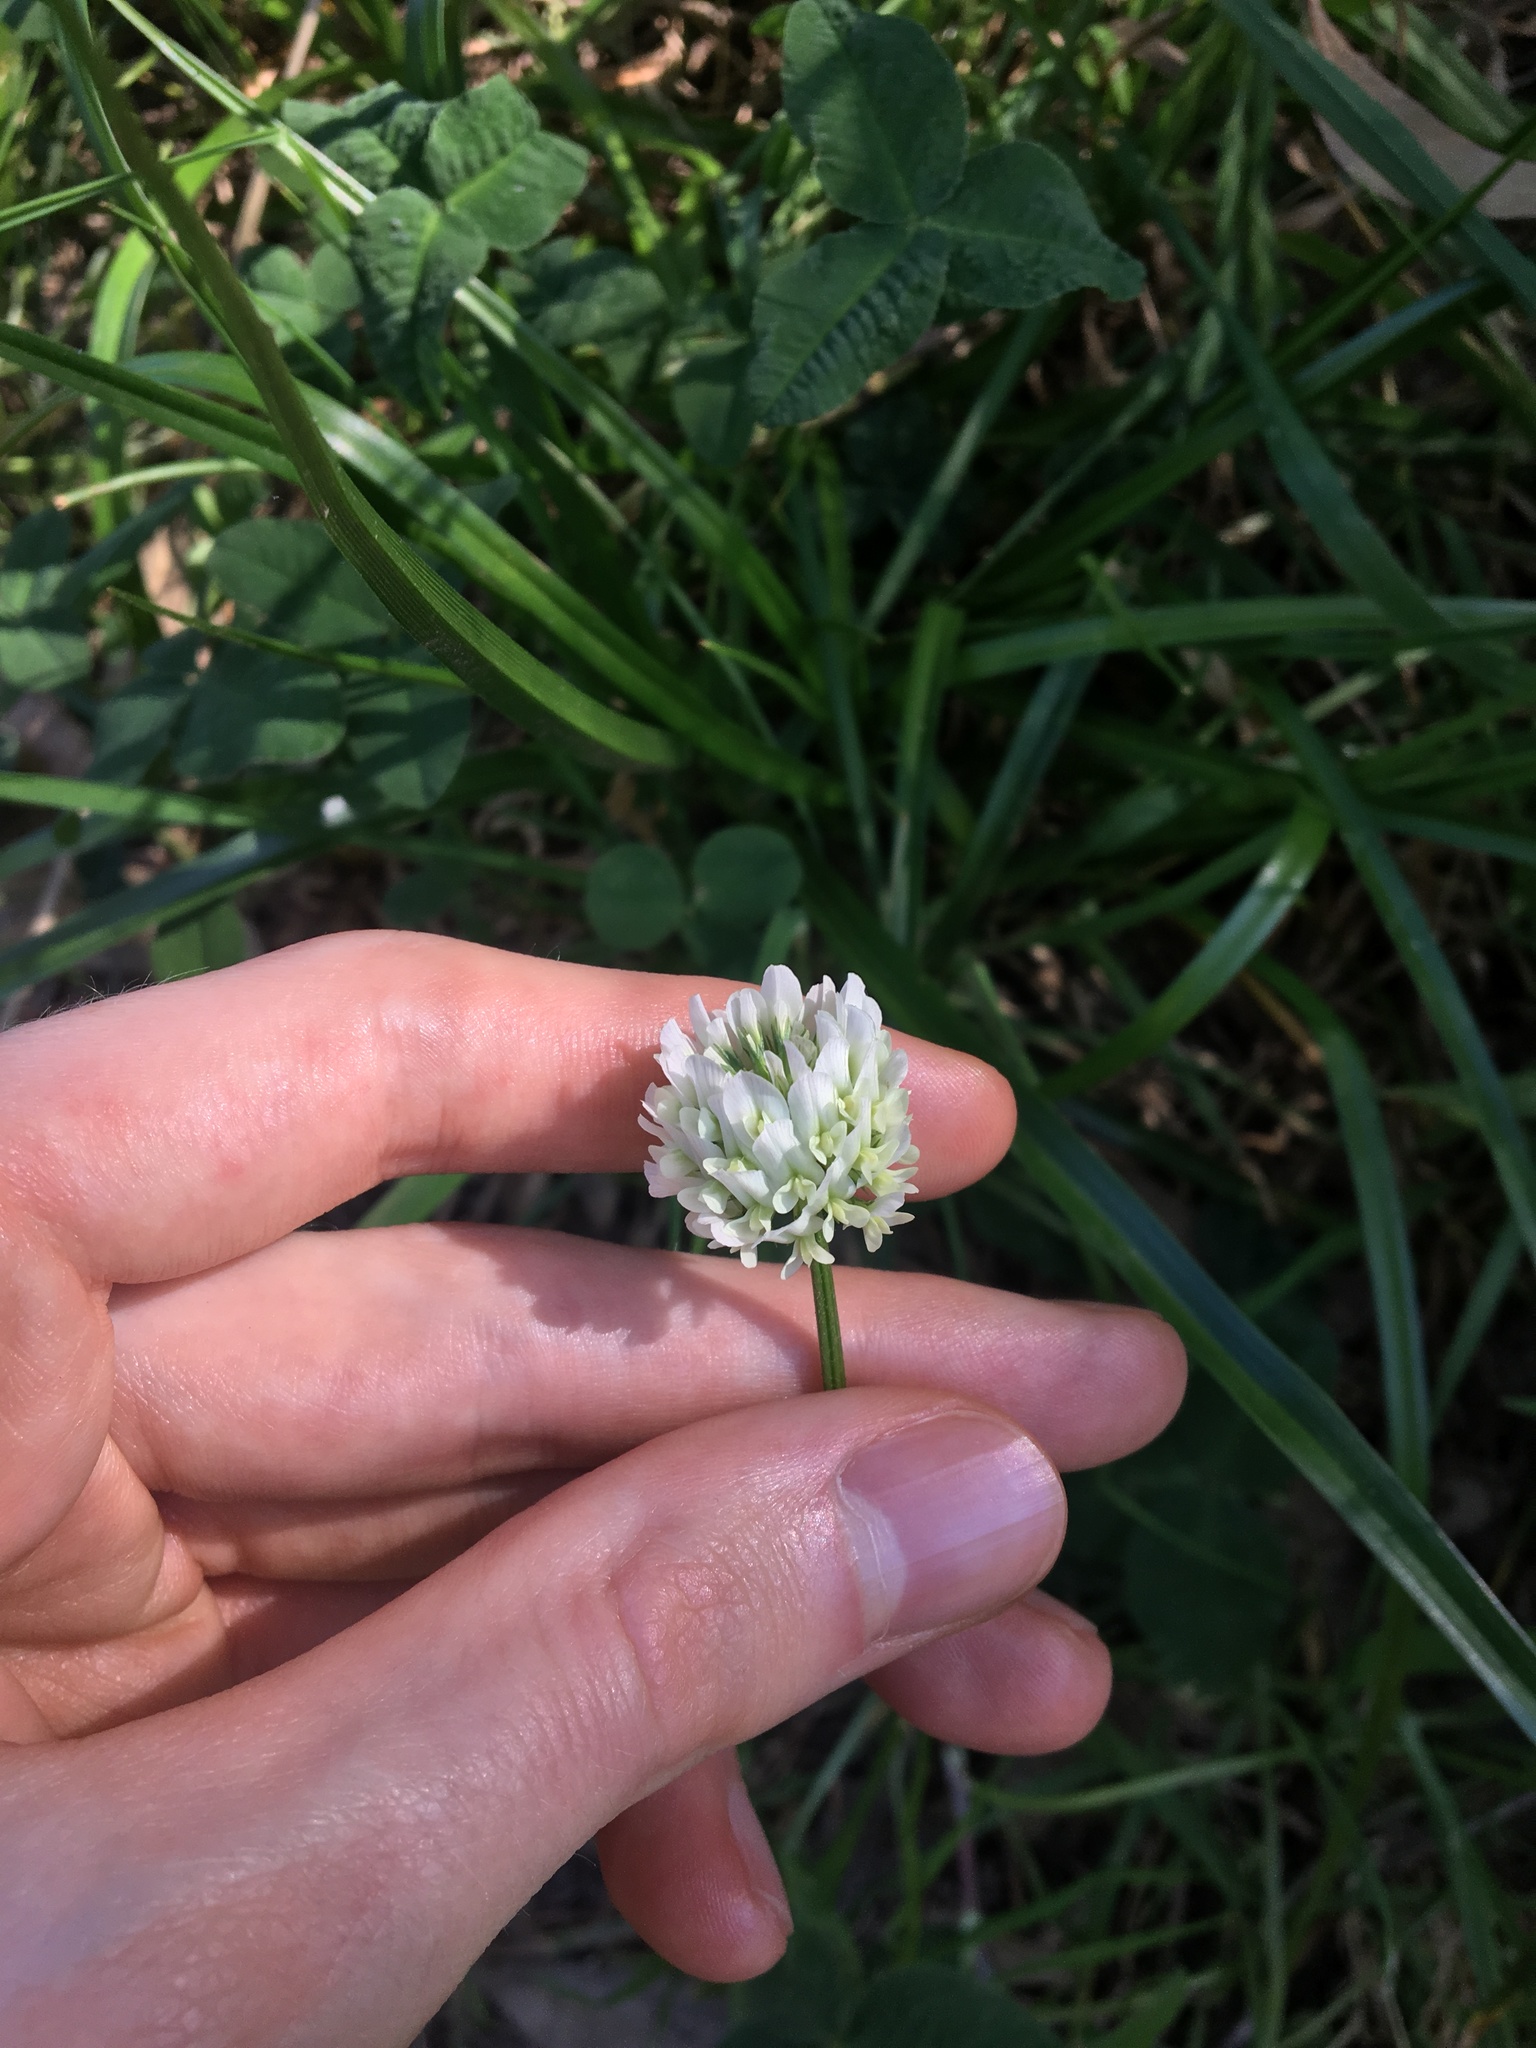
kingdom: Plantae
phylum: Tracheophyta
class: Magnoliopsida
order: Fabales
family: Fabaceae
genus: Trifolium
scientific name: Trifolium repens
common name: White clover
